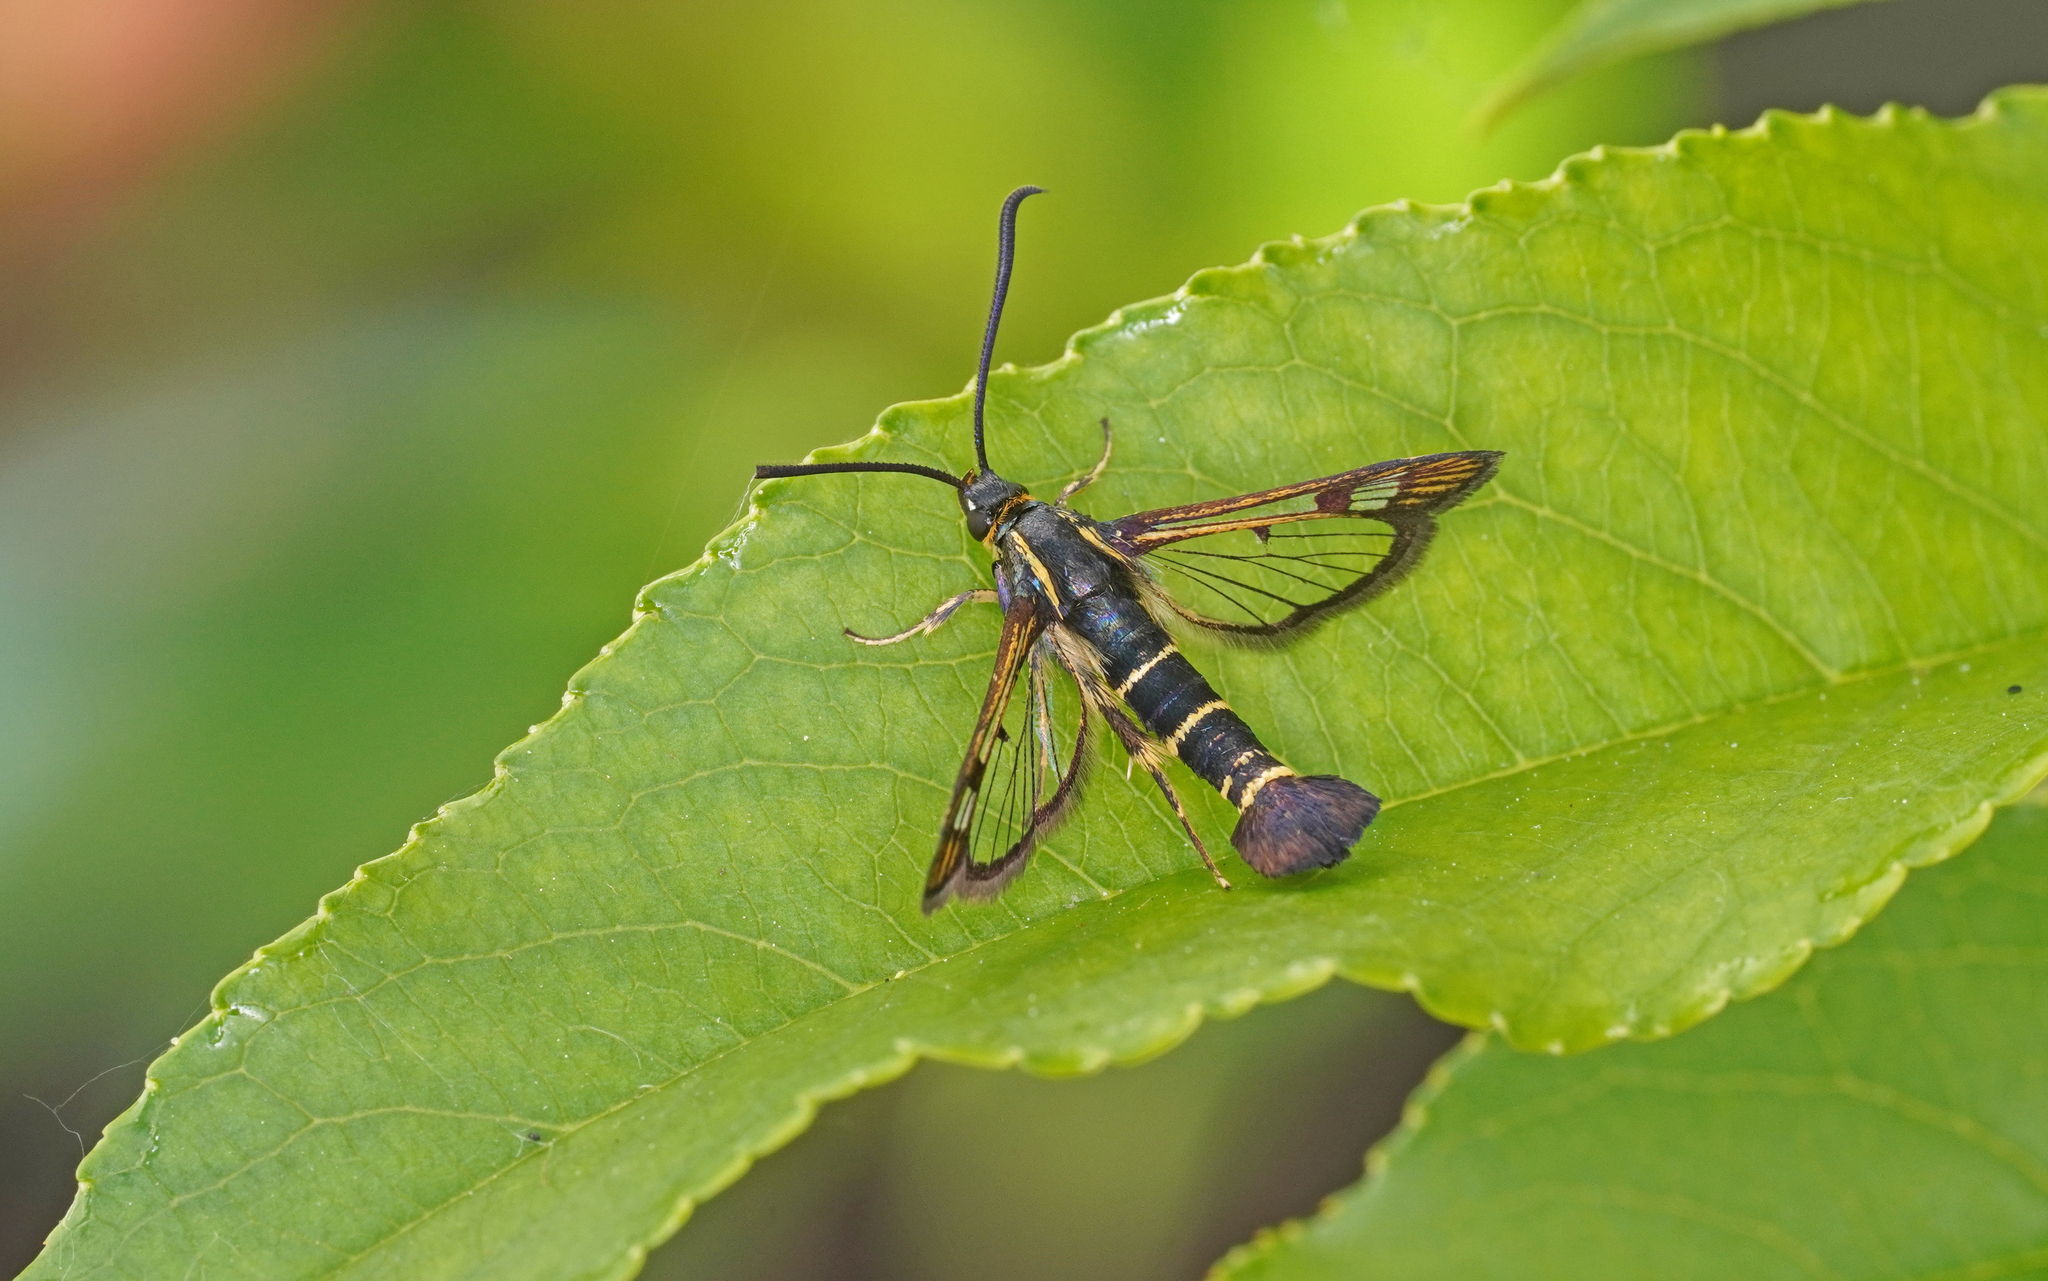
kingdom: Animalia
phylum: Arthropoda
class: Insecta
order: Lepidoptera
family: Sesiidae
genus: Synanthedon
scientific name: Synanthedon tipuliformis
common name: Currant clearwing
